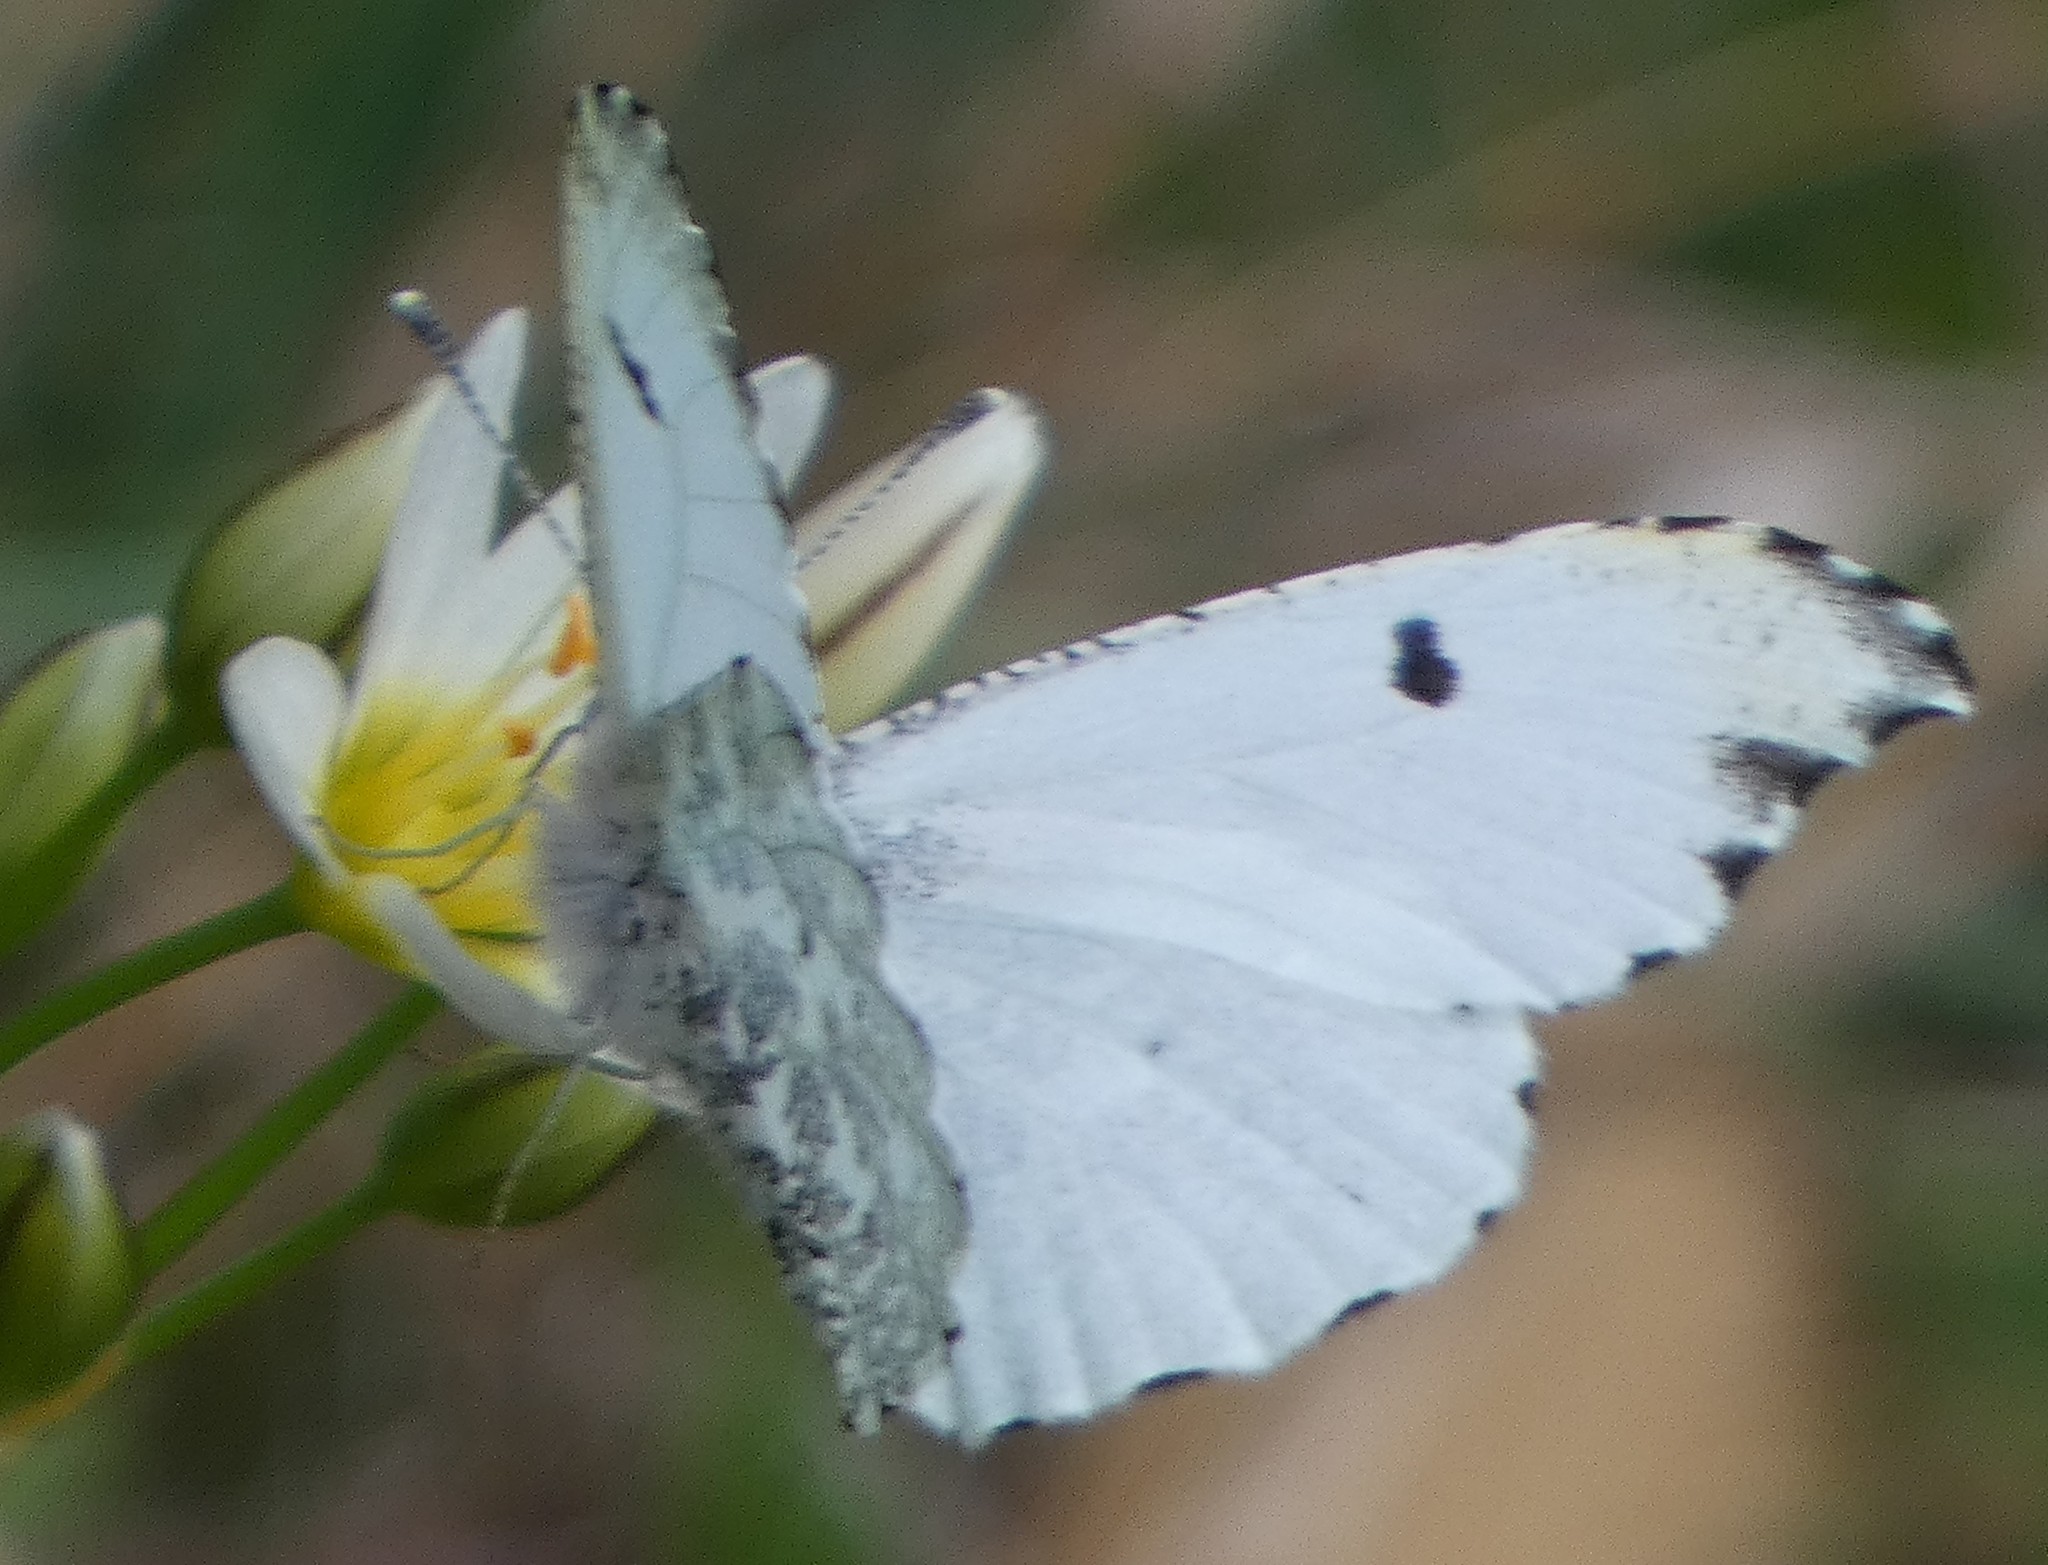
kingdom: Animalia
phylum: Arthropoda
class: Insecta
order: Lepidoptera
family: Pieridae
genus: Anthocharis
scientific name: Anthocharis midea
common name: Falcate orangetip
